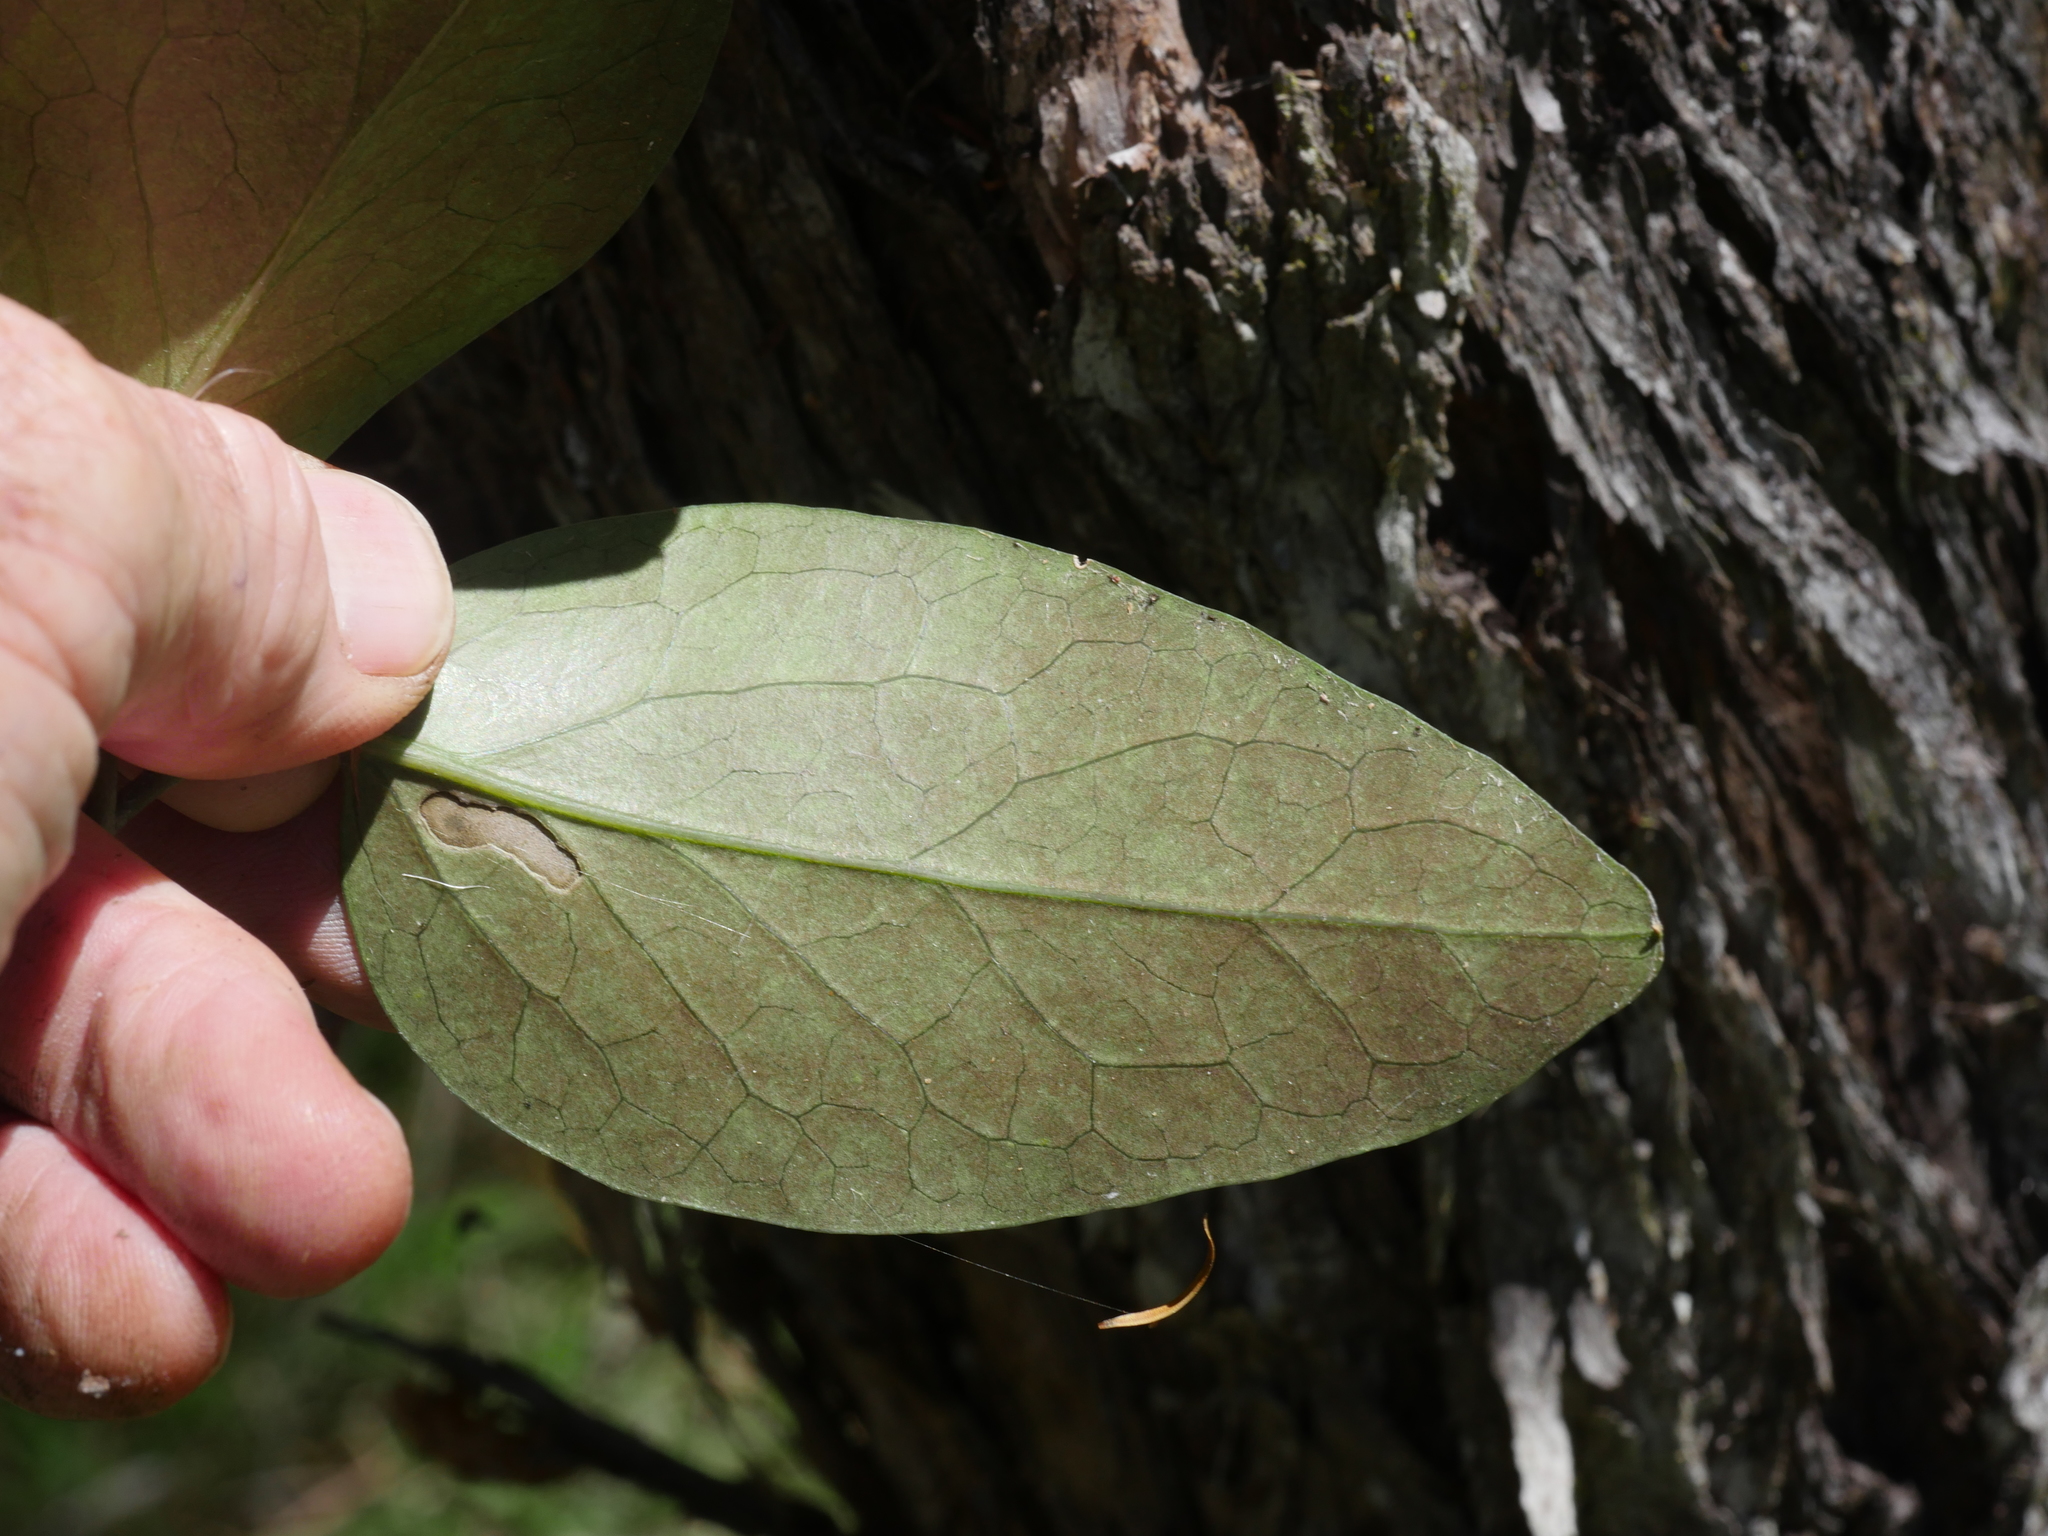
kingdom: Plantae
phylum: Tracheophyta
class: Magnoliopsida
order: Ranunculales
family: Ranunculaceae
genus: Clematis
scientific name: Clematis paniculata
